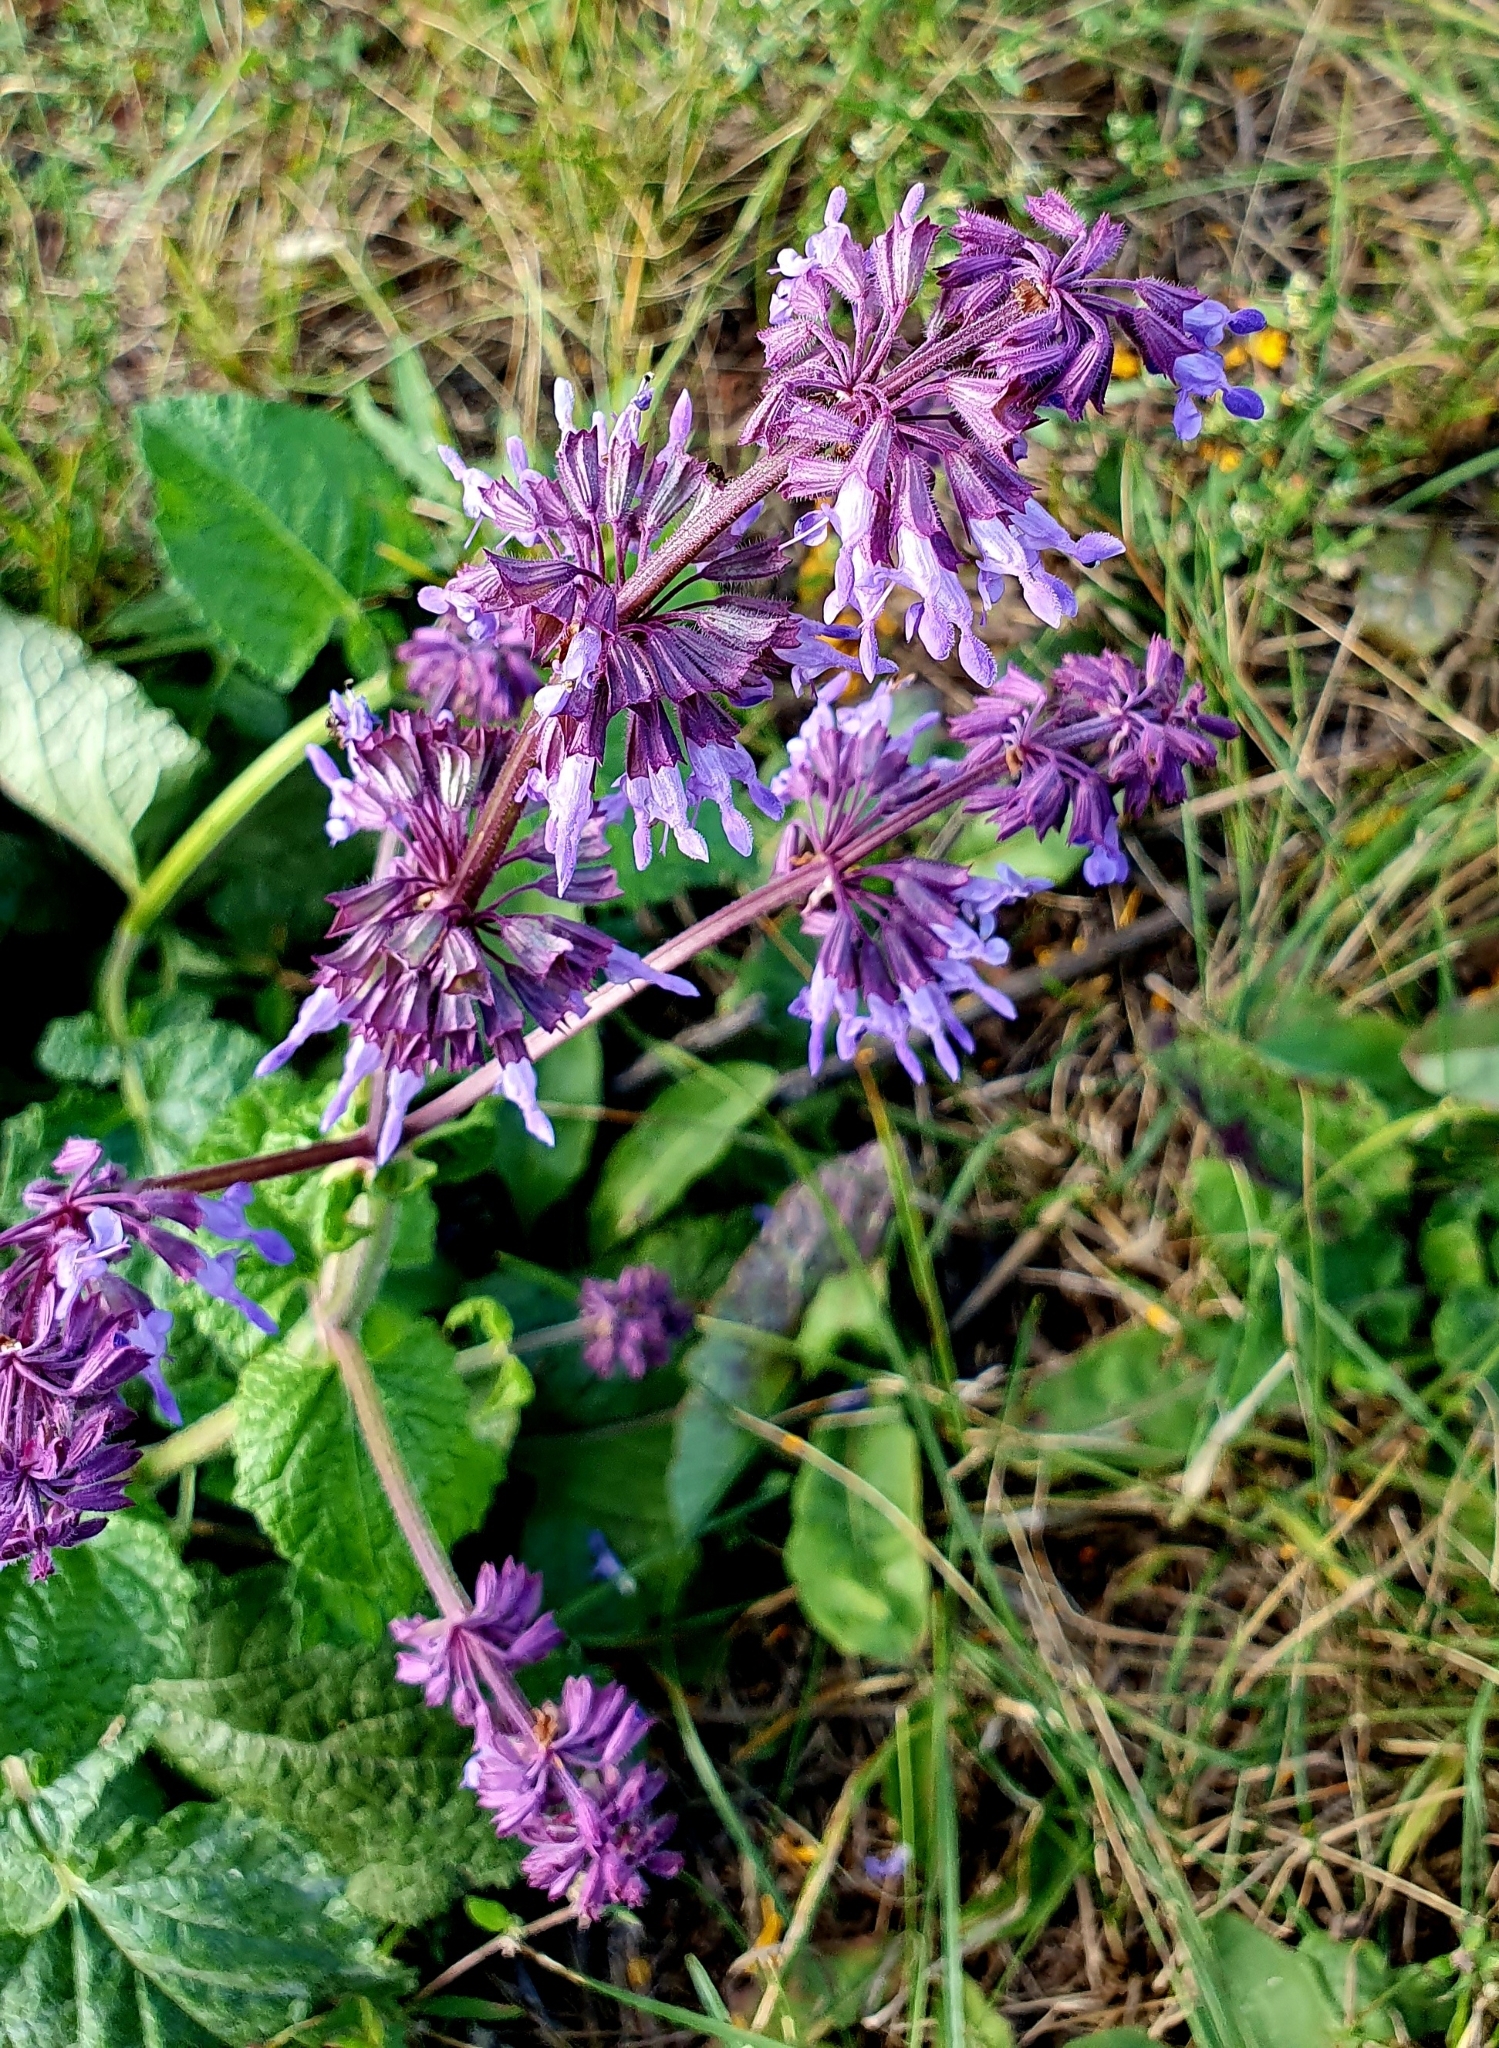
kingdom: Plantae
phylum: Tracheophyta
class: Magnoliopsida
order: Lamiales
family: Lamiaceae
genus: Salvia
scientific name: Salvia verticillata
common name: Whorled clary
